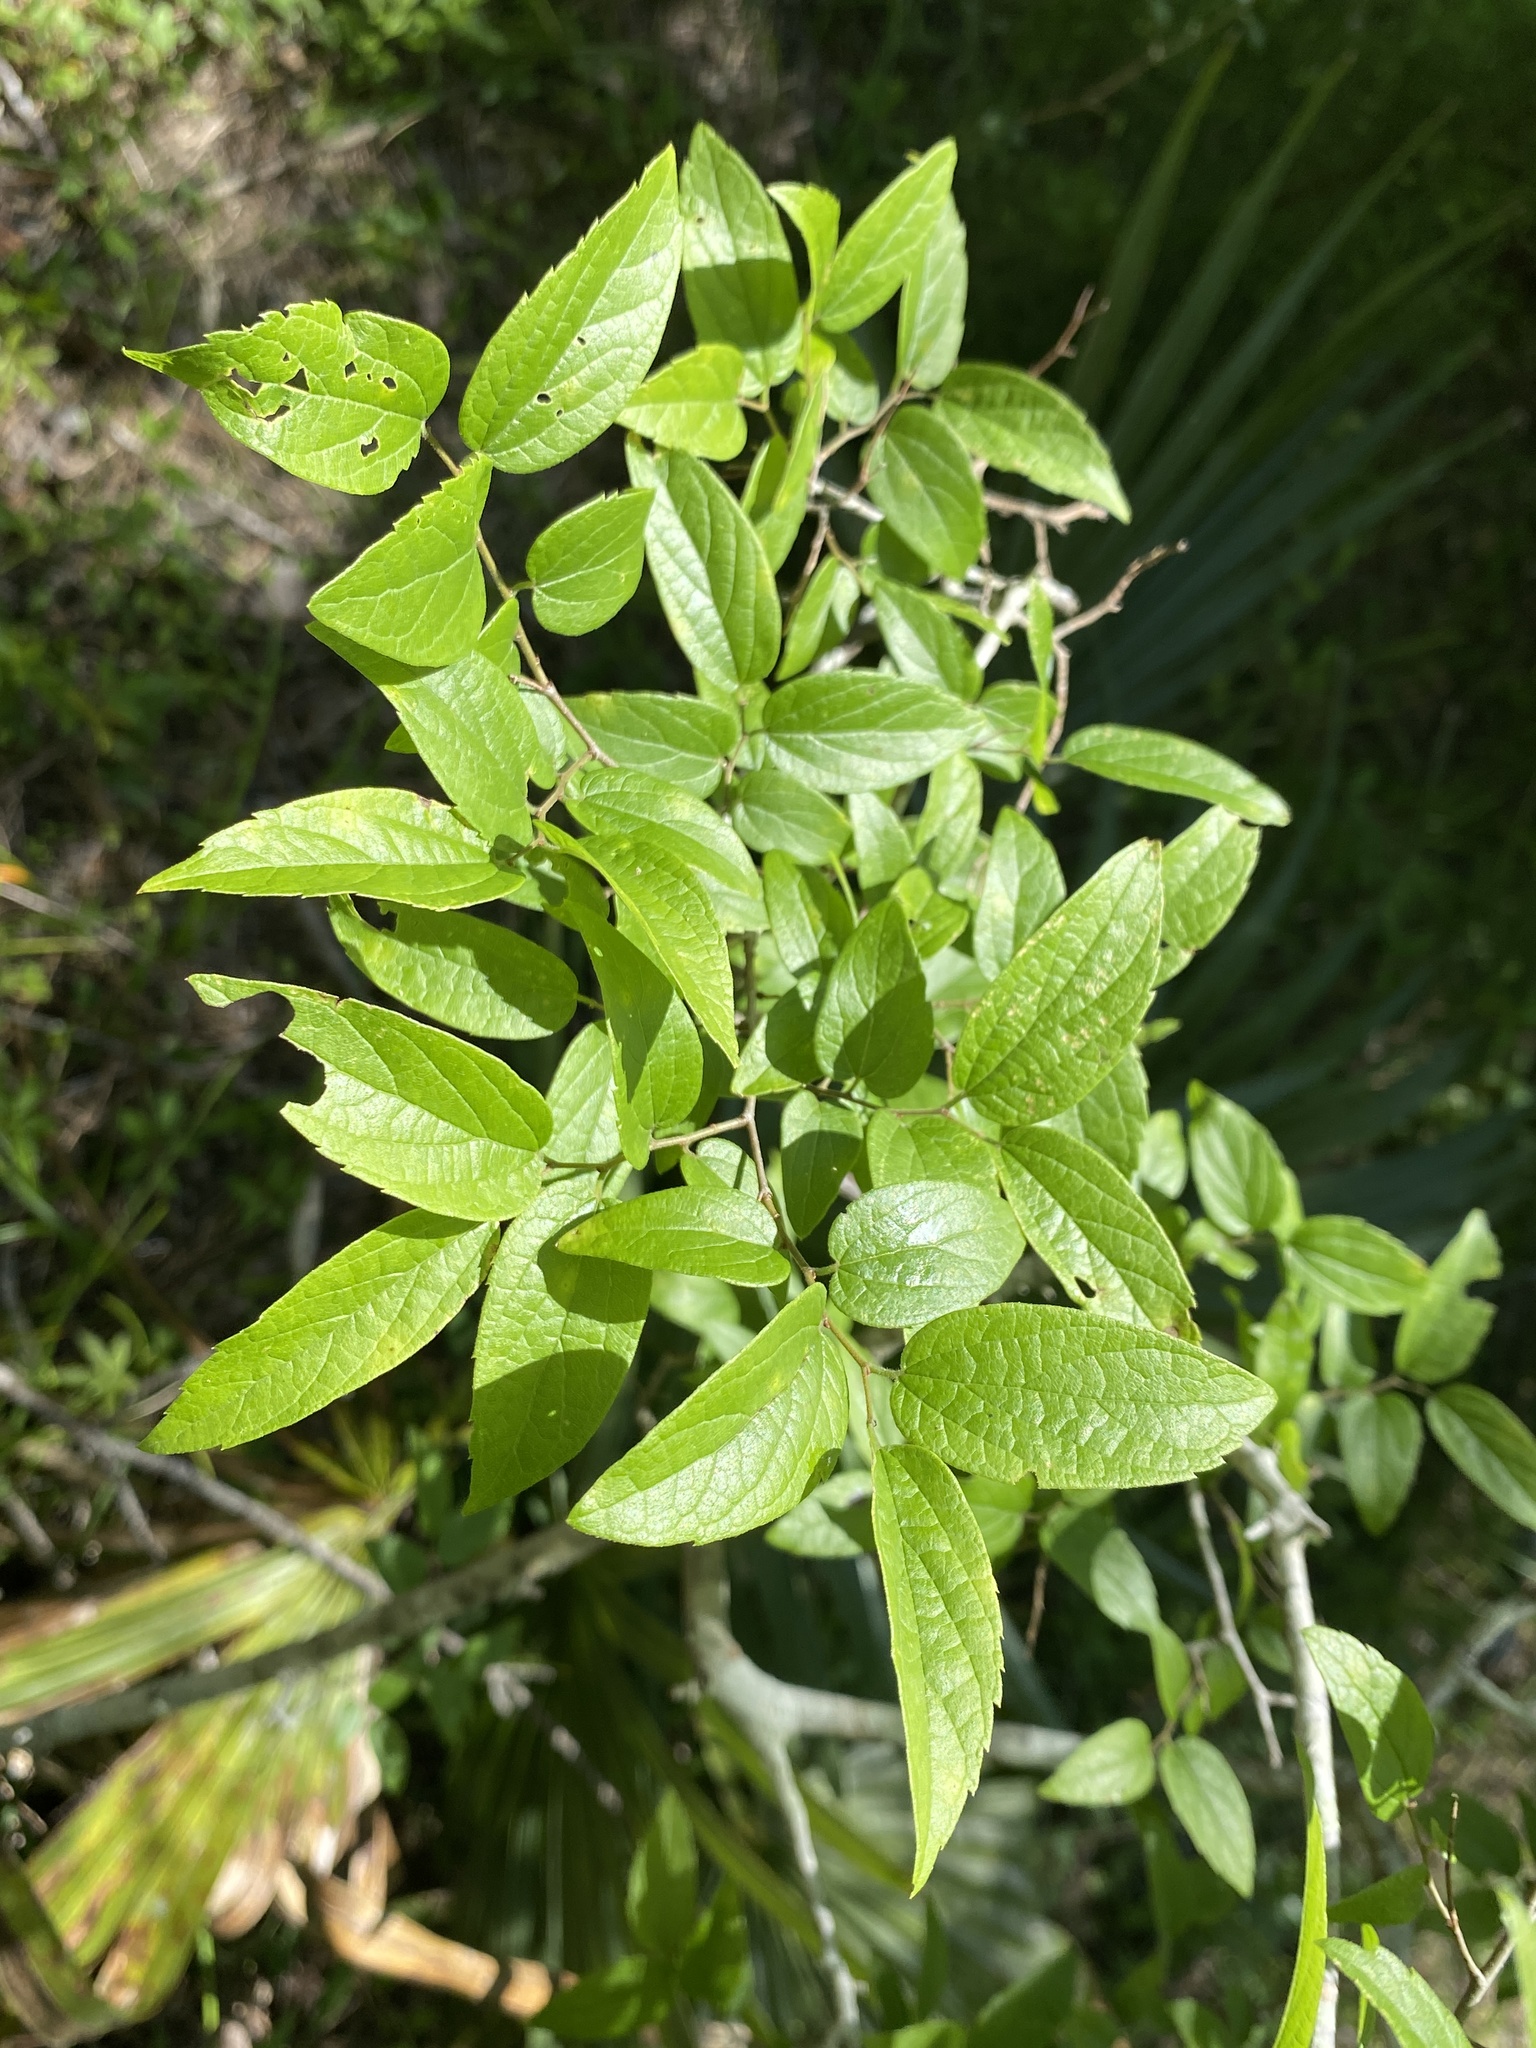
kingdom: Plantae
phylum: Tracheophyta
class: Magnoliopsida
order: Rosales
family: Cannabaceae
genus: Celtis
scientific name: Celtis tenuifolia
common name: Georgia hackberry
